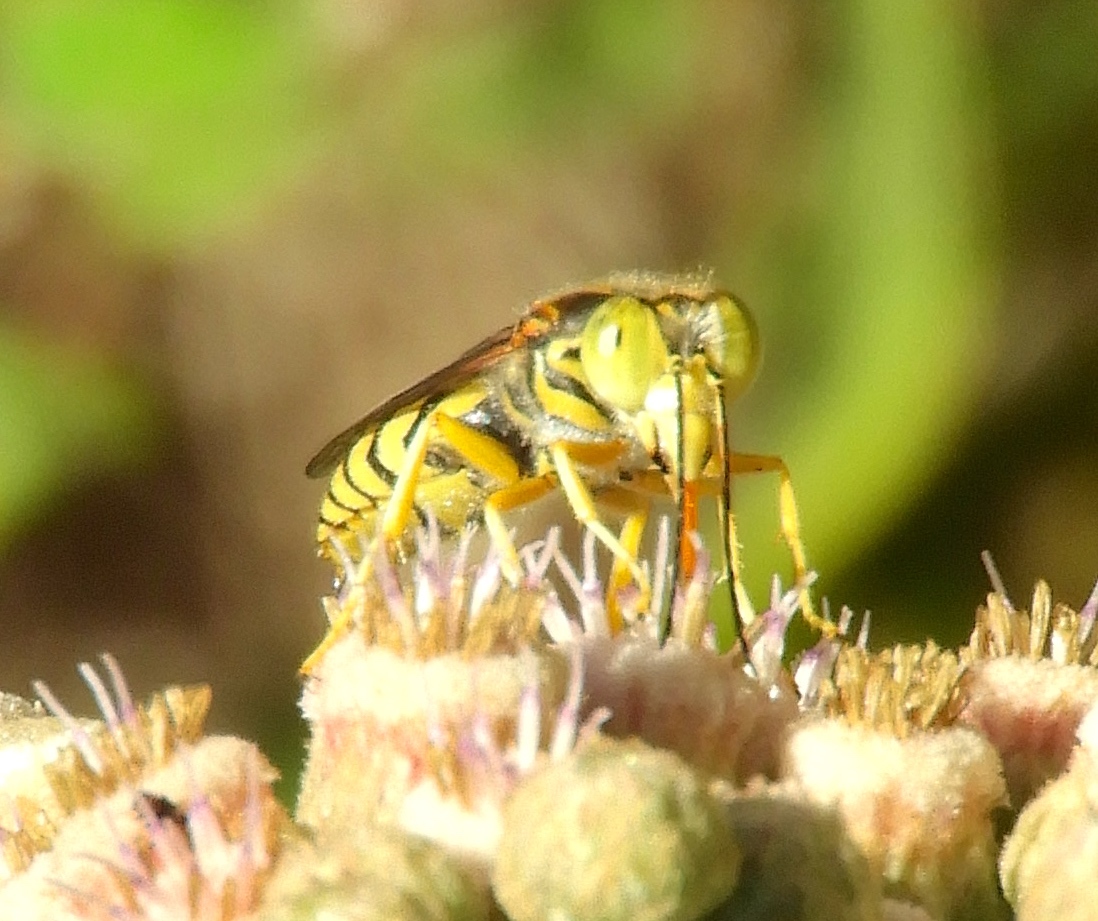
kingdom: Animalia
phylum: Arthropoda
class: Insecta
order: Hymenoptera
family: Crabronidae
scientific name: Crabronidae
